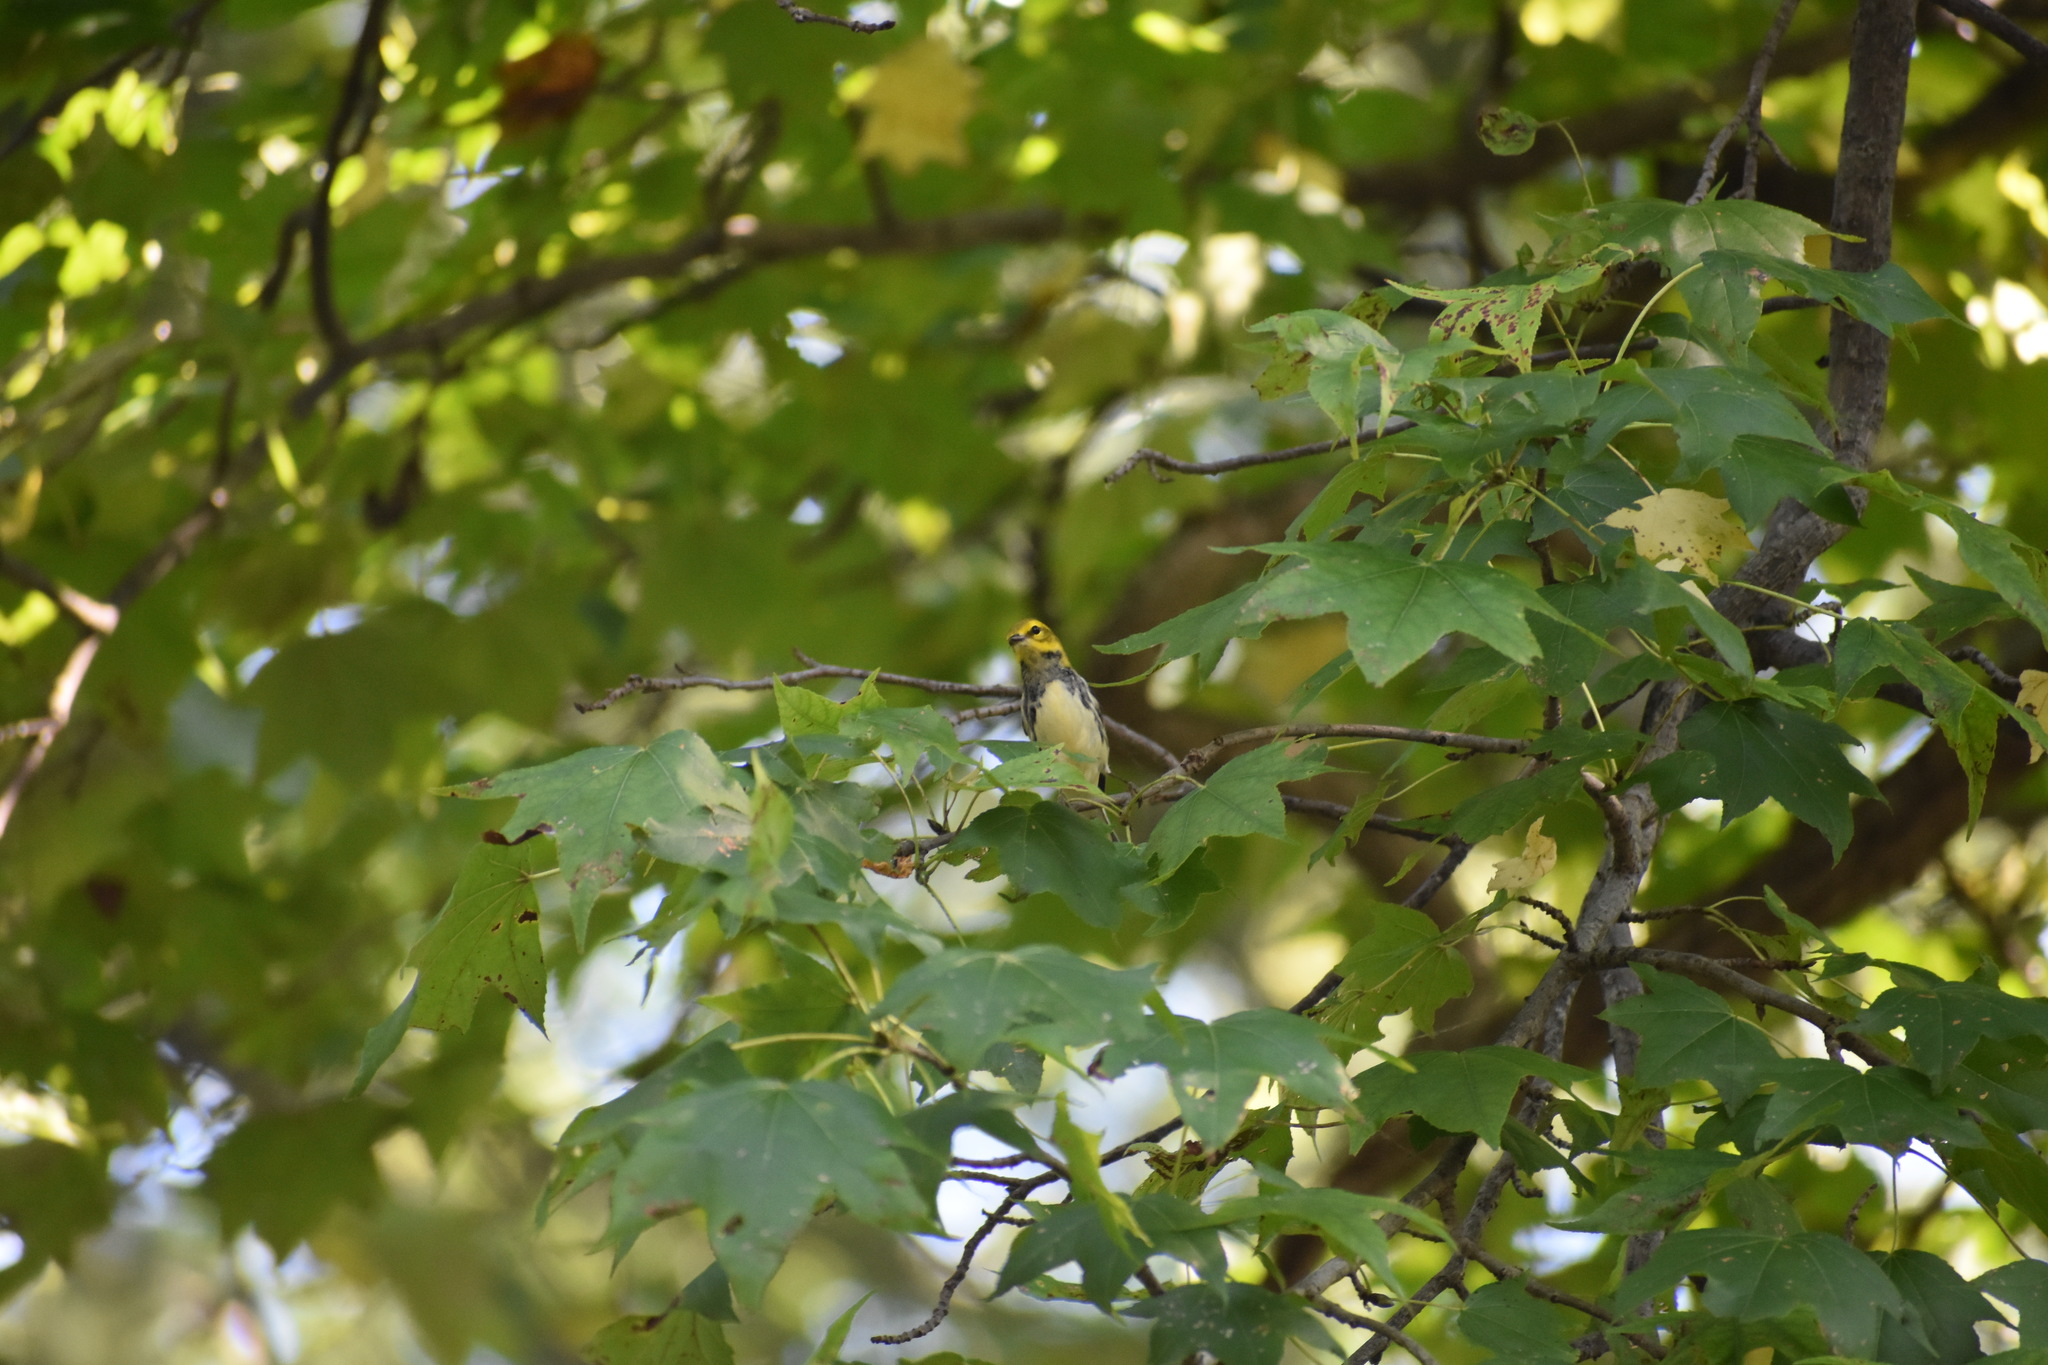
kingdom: Animalia
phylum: Chordata
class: Aves
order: Passeriformes
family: Parulidae
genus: Setophaga
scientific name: Setophaga virens
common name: Black-throated green warbler
